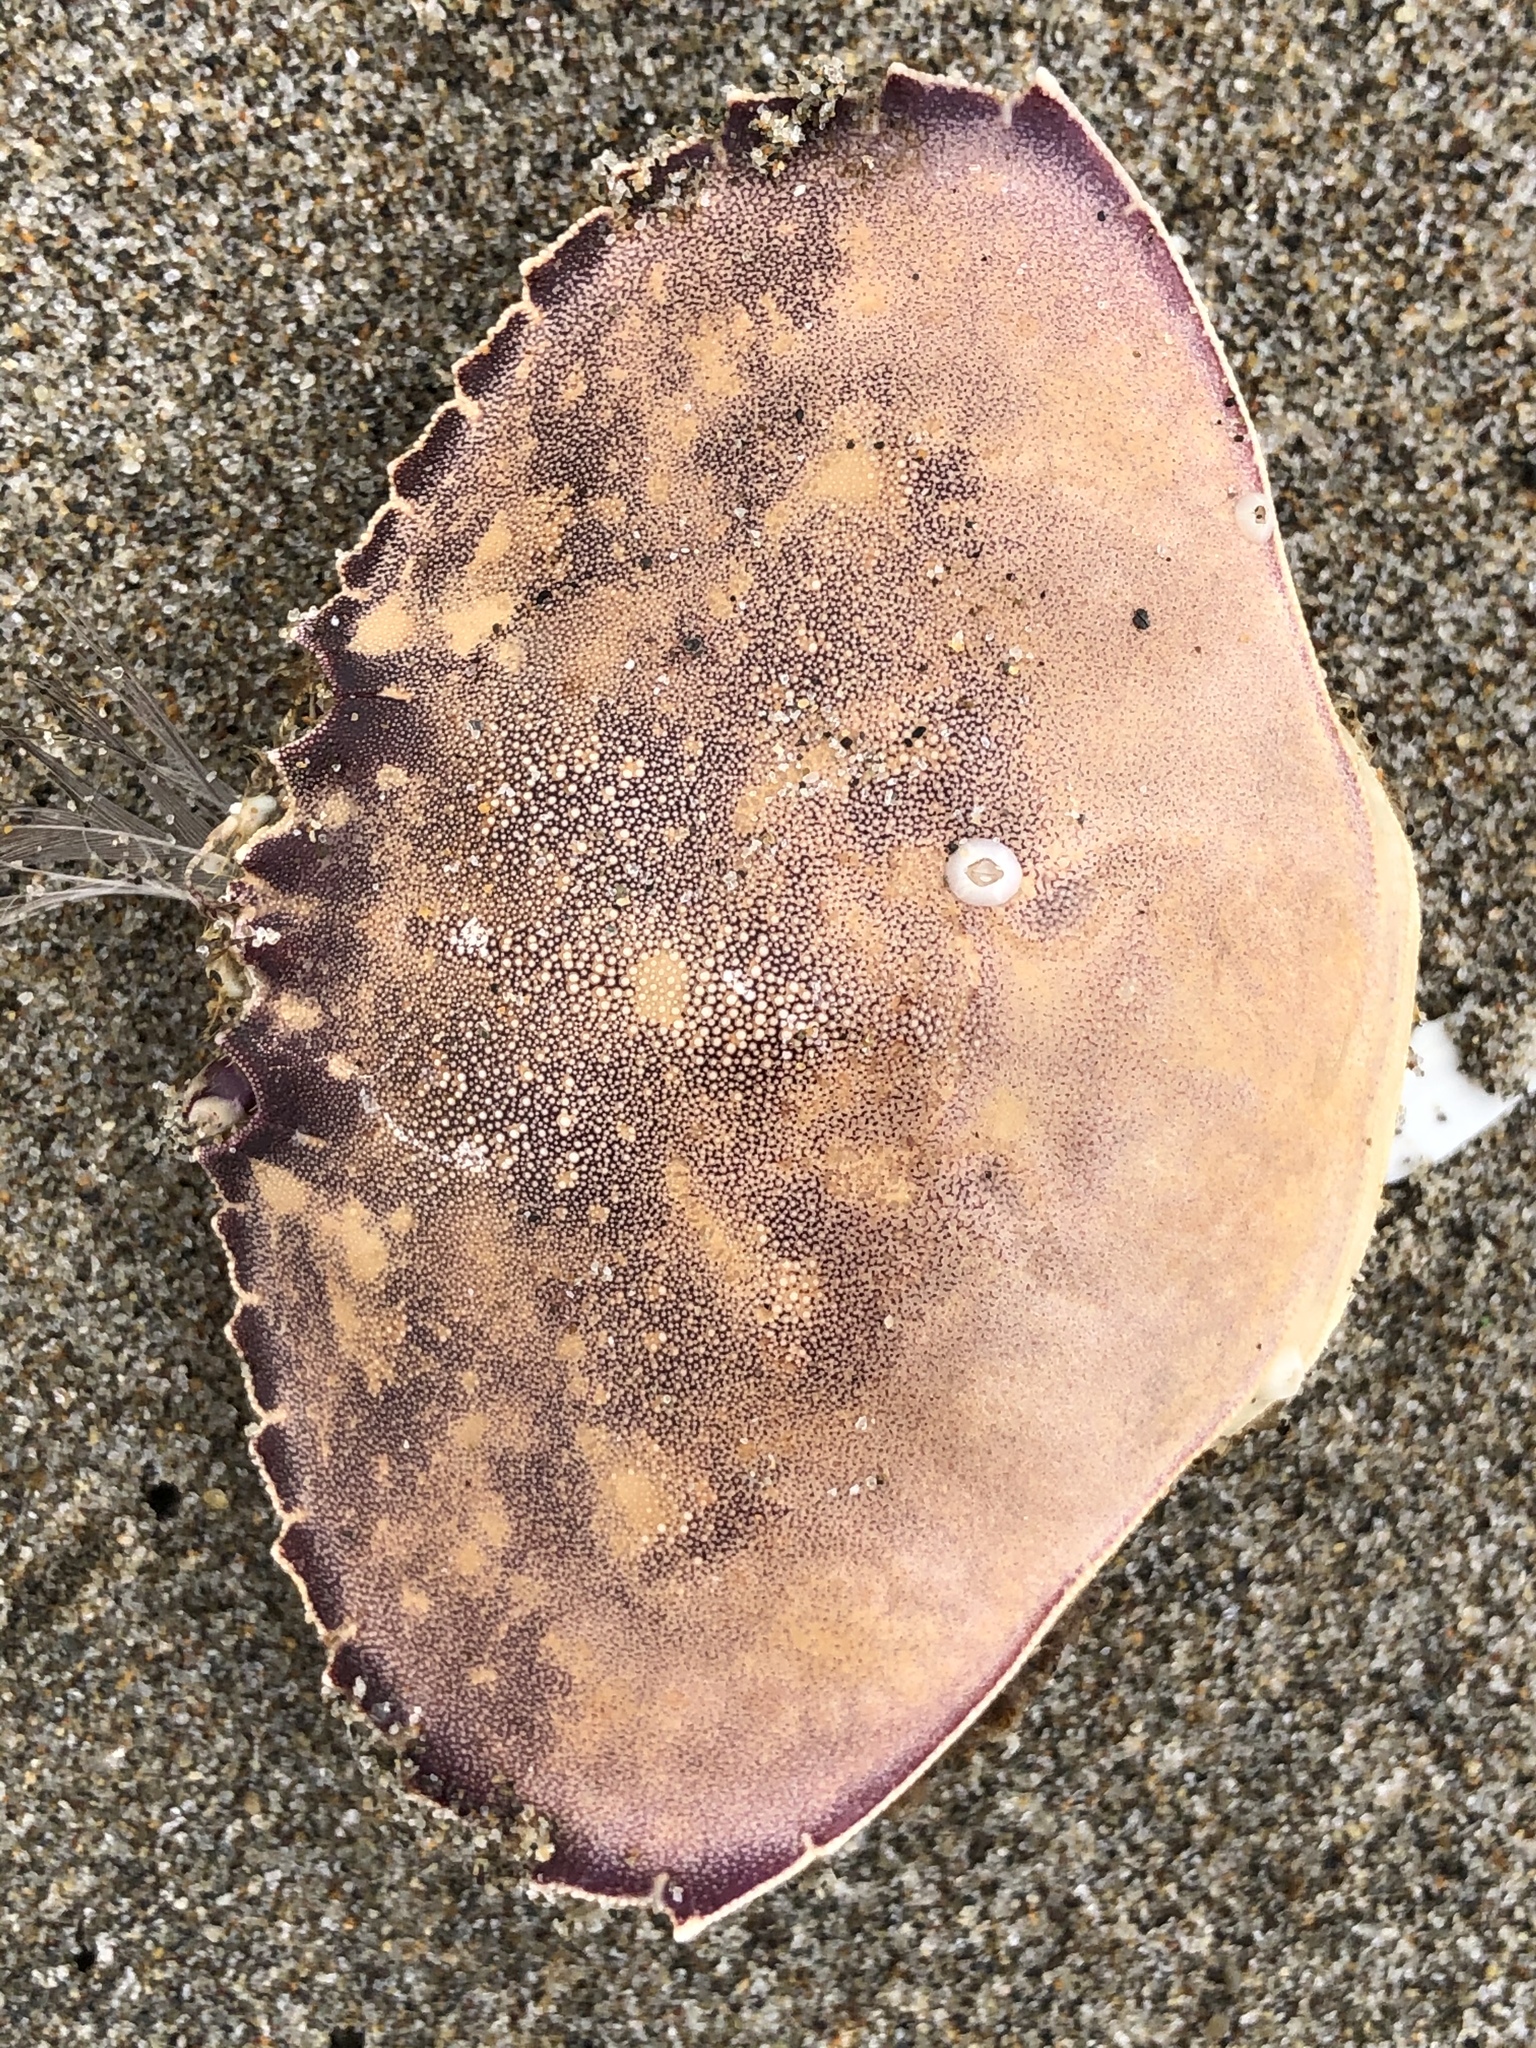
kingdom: Animalia
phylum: Arthropoda
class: Malacostraca
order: Decapoda
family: Cancridae
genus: Metacarcinus
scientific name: Metacarcinus gracilis
